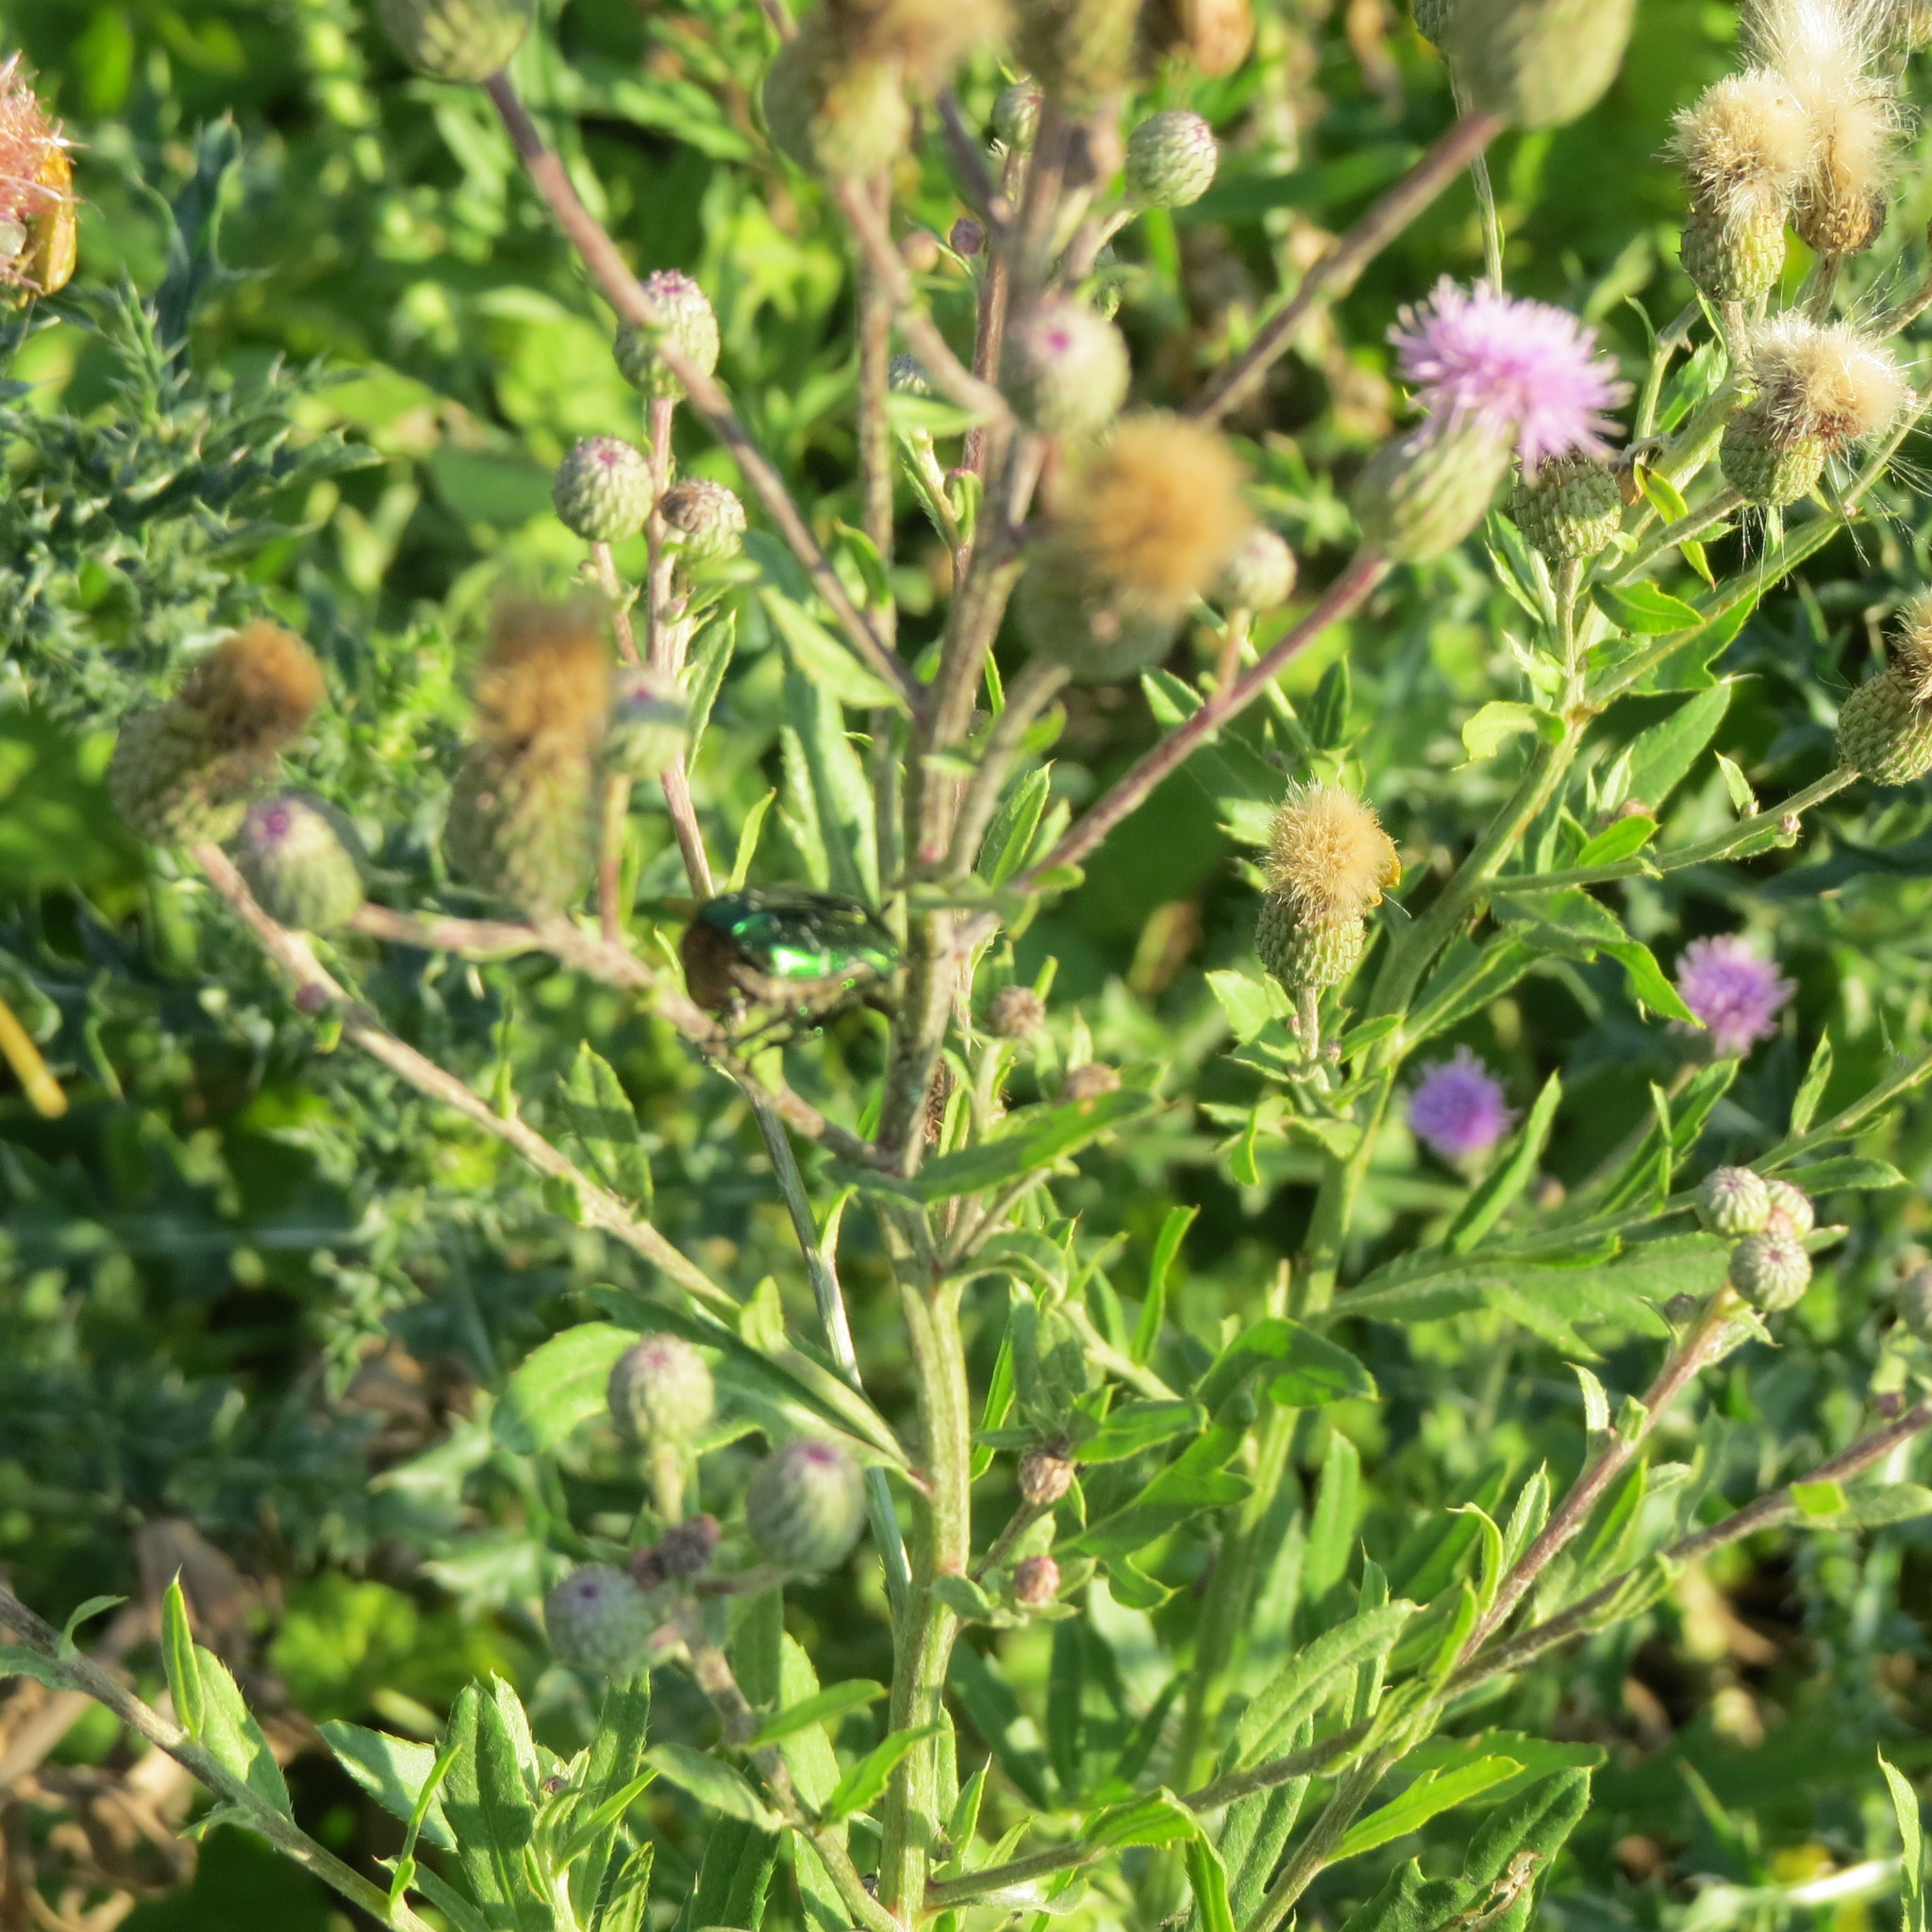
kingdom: Animalia
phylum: Arthropoda
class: Insecta
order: Coleoptera
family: Scarabaeidae
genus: Cetonia
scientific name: Cetonia aurata
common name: Rose chafer
